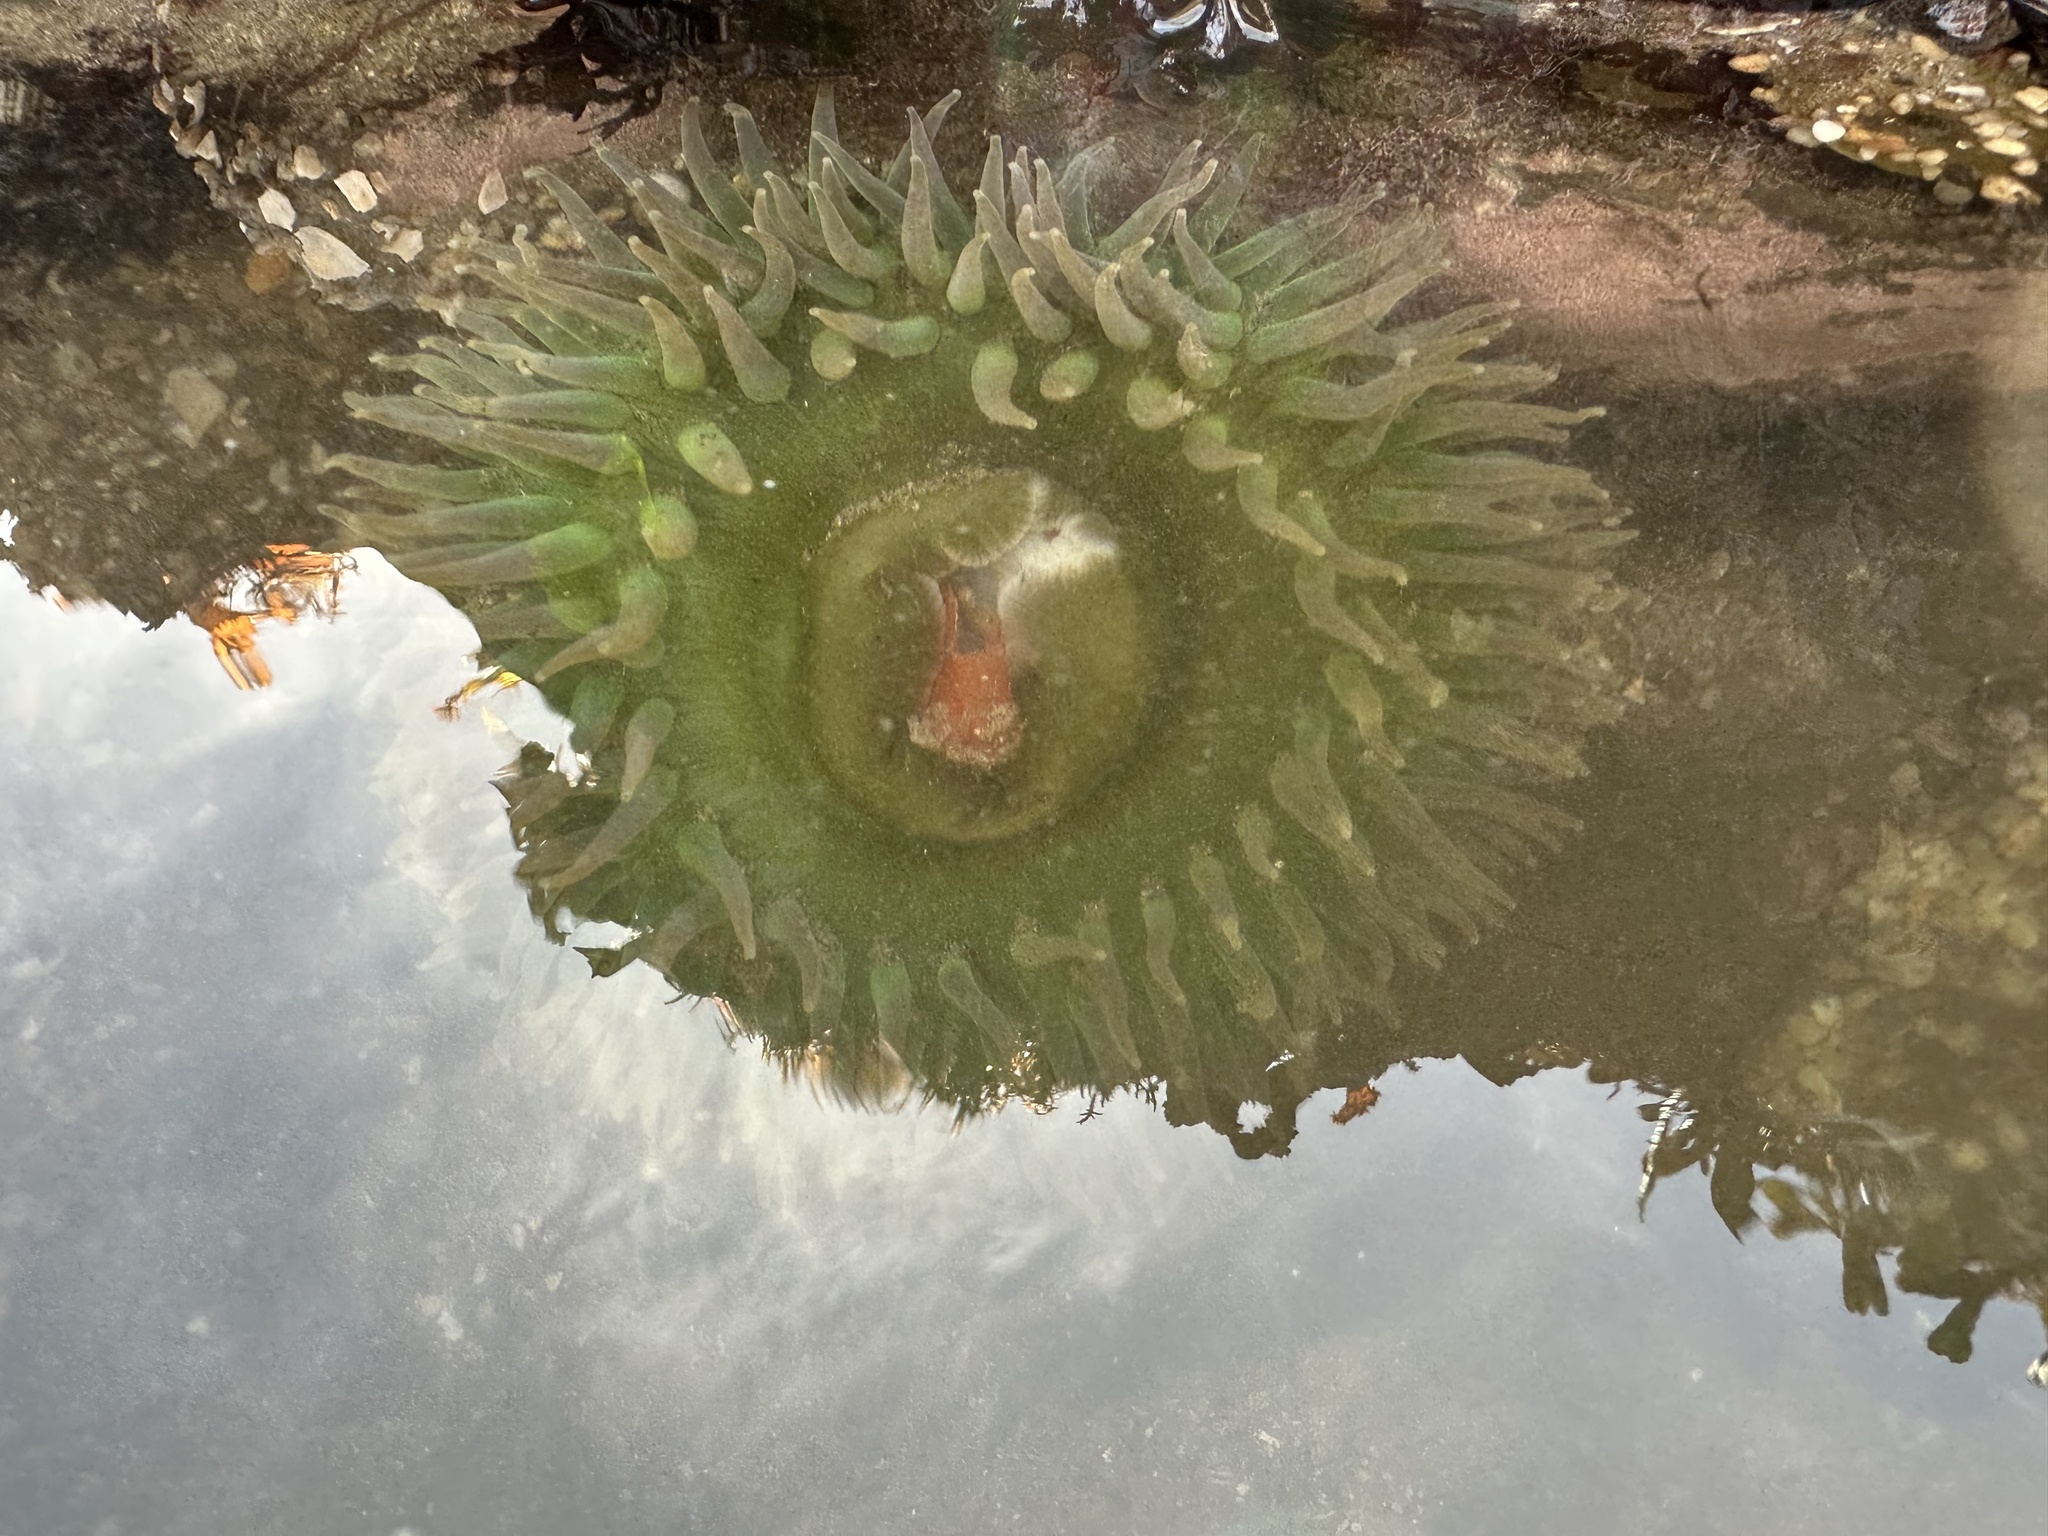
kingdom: Animalia
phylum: Cnidaria
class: Anthozoa
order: Actiniaria
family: Actiniidae
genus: Anthopleura
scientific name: Anthopleura xanthogrammica
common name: Giant green anemone
